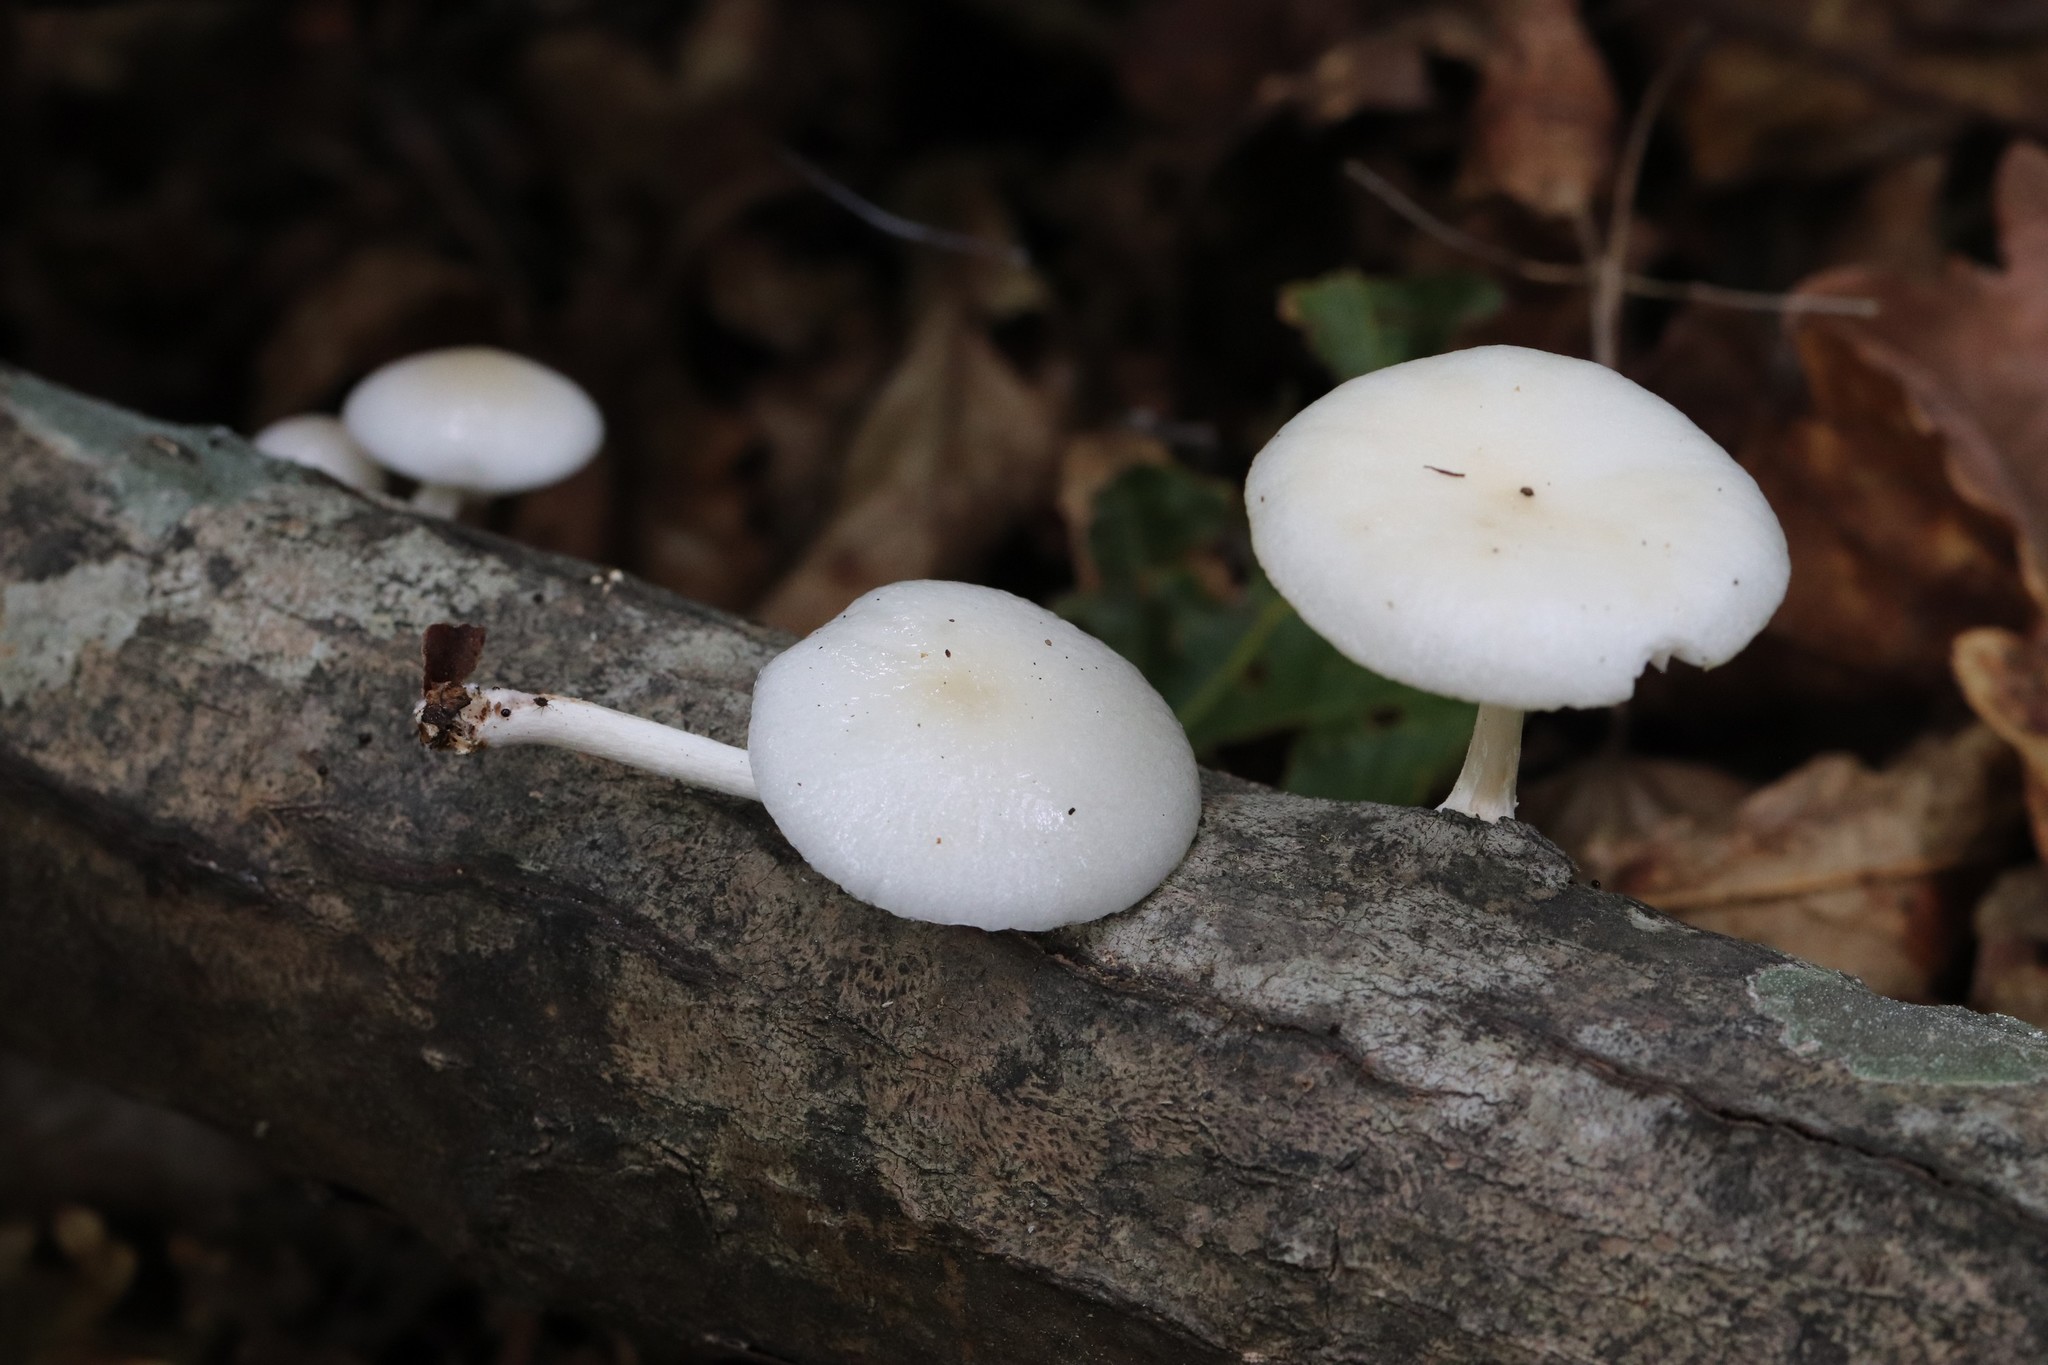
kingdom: Fungi
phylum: Basidiomycota
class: Agaricomycetes
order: Agaricales
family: Physalacriaceae
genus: Mucidula
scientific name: Mucidula mucida
